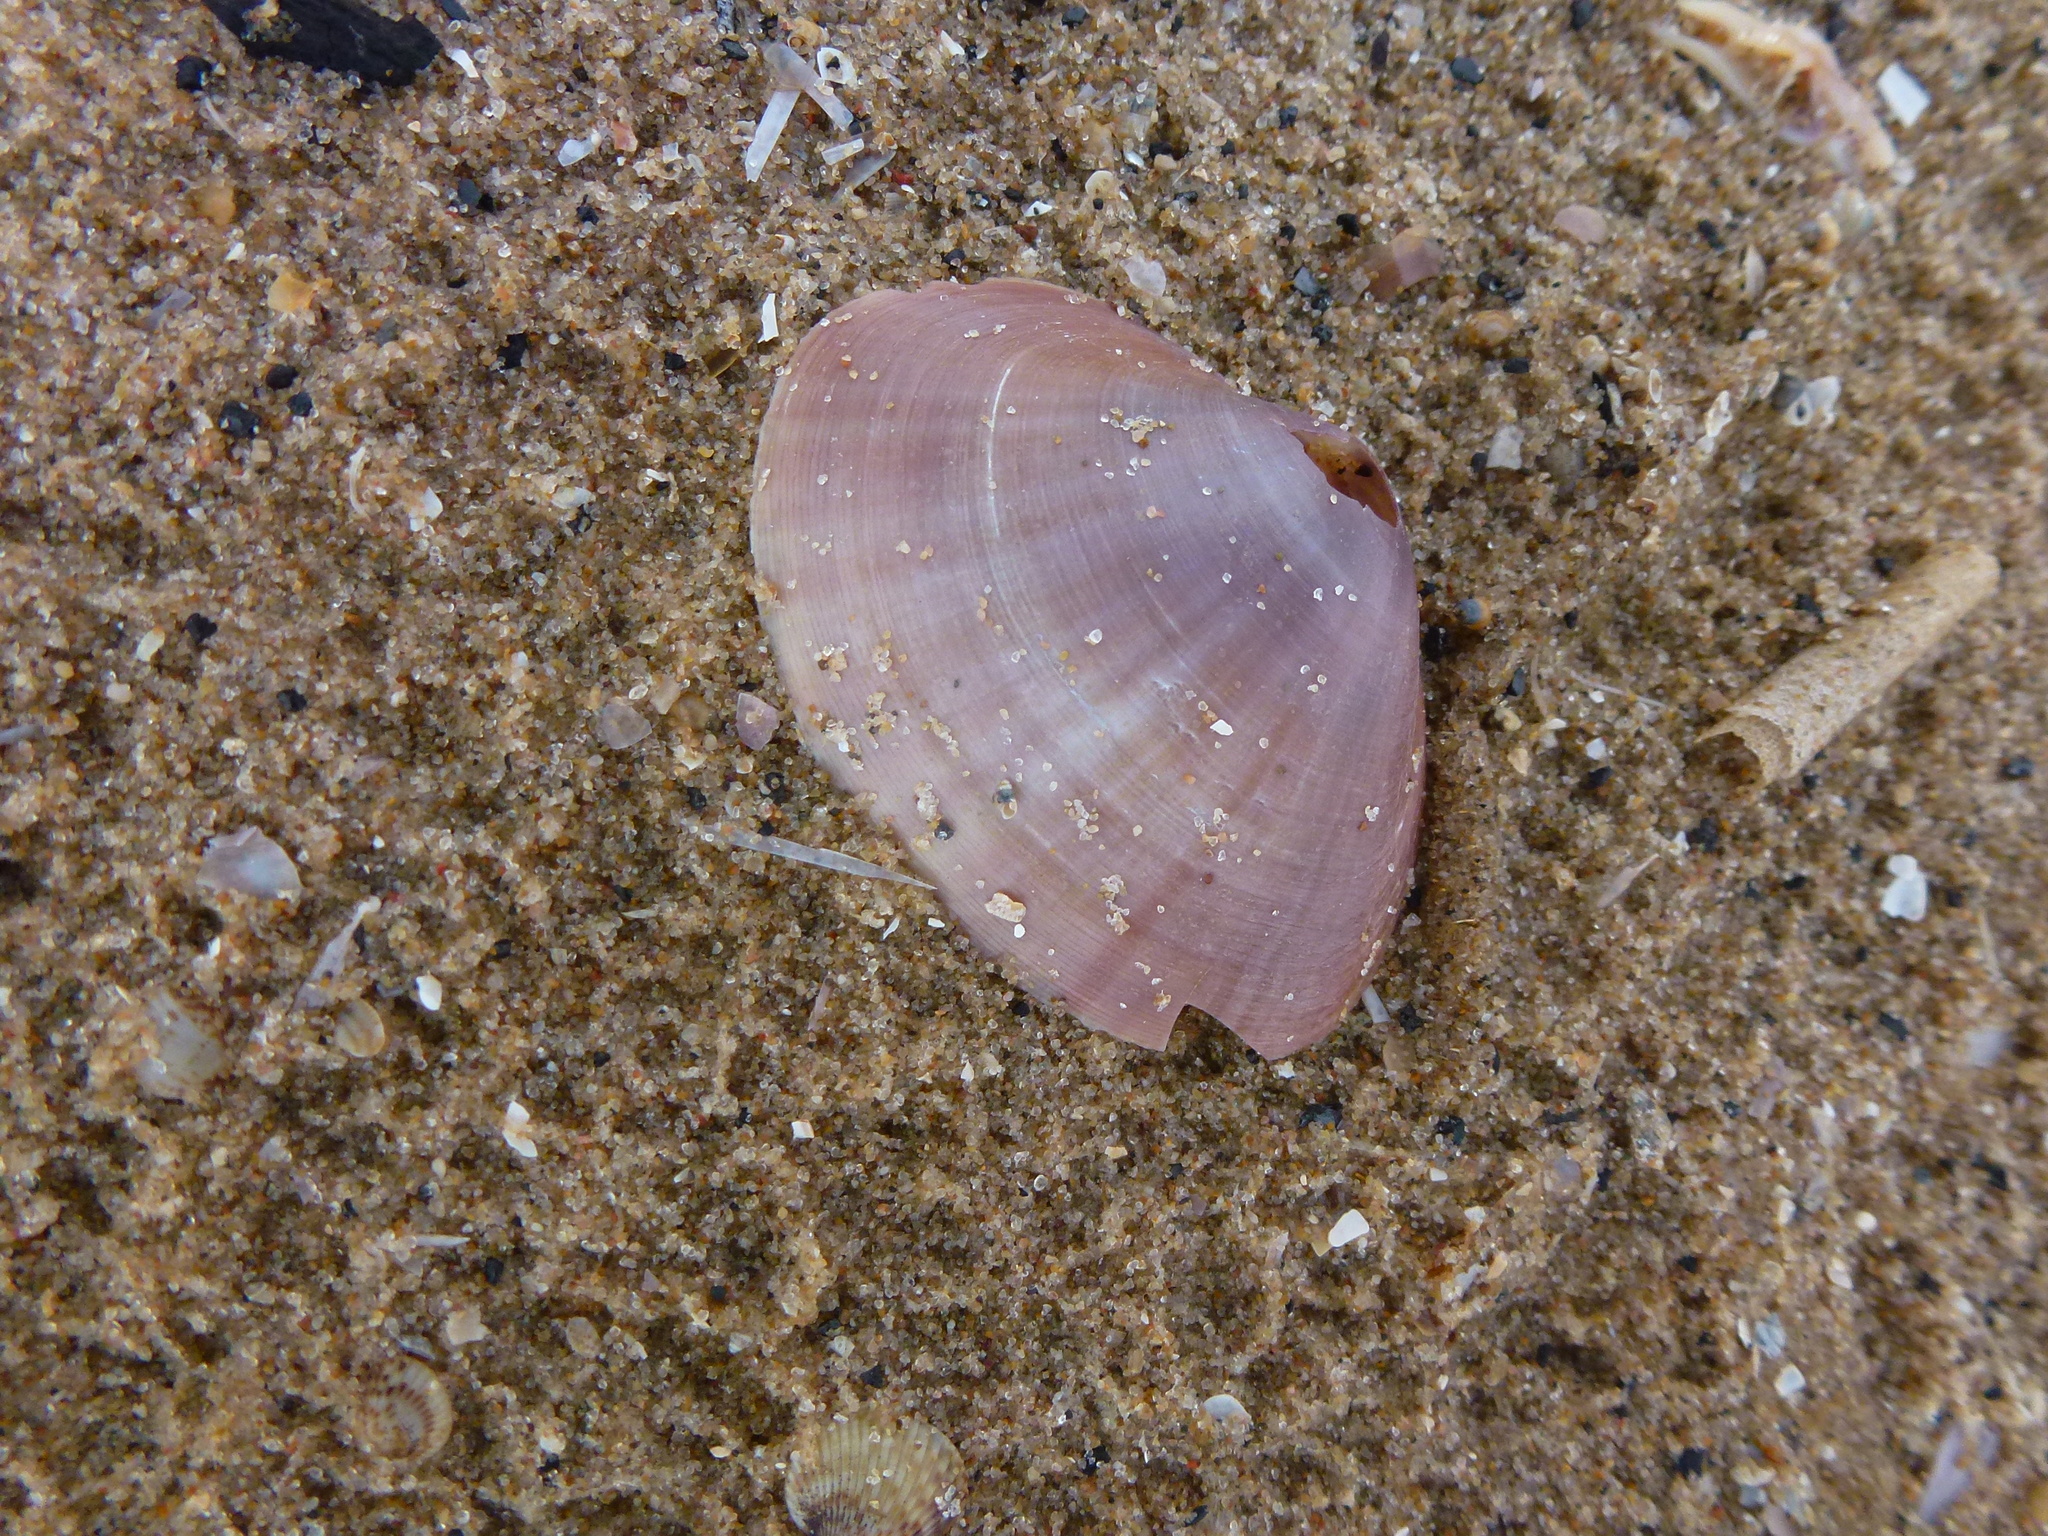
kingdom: Animalia
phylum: Mollusca
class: Bivalvia
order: Venerida
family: Mactridae
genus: Mactra
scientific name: Mactra stultorum
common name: Rayed trough shell
